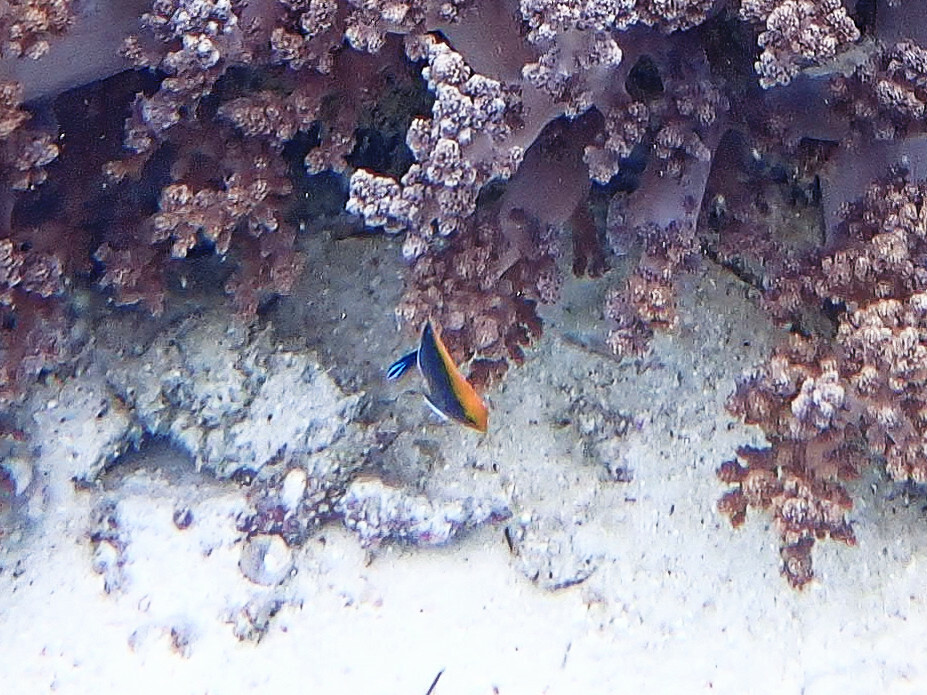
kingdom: Animalia
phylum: Chordata
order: Perciformes
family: Pomacentridae
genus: Pomacentrus
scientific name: Pomacentrus chrysurus
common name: White-tail damsel
